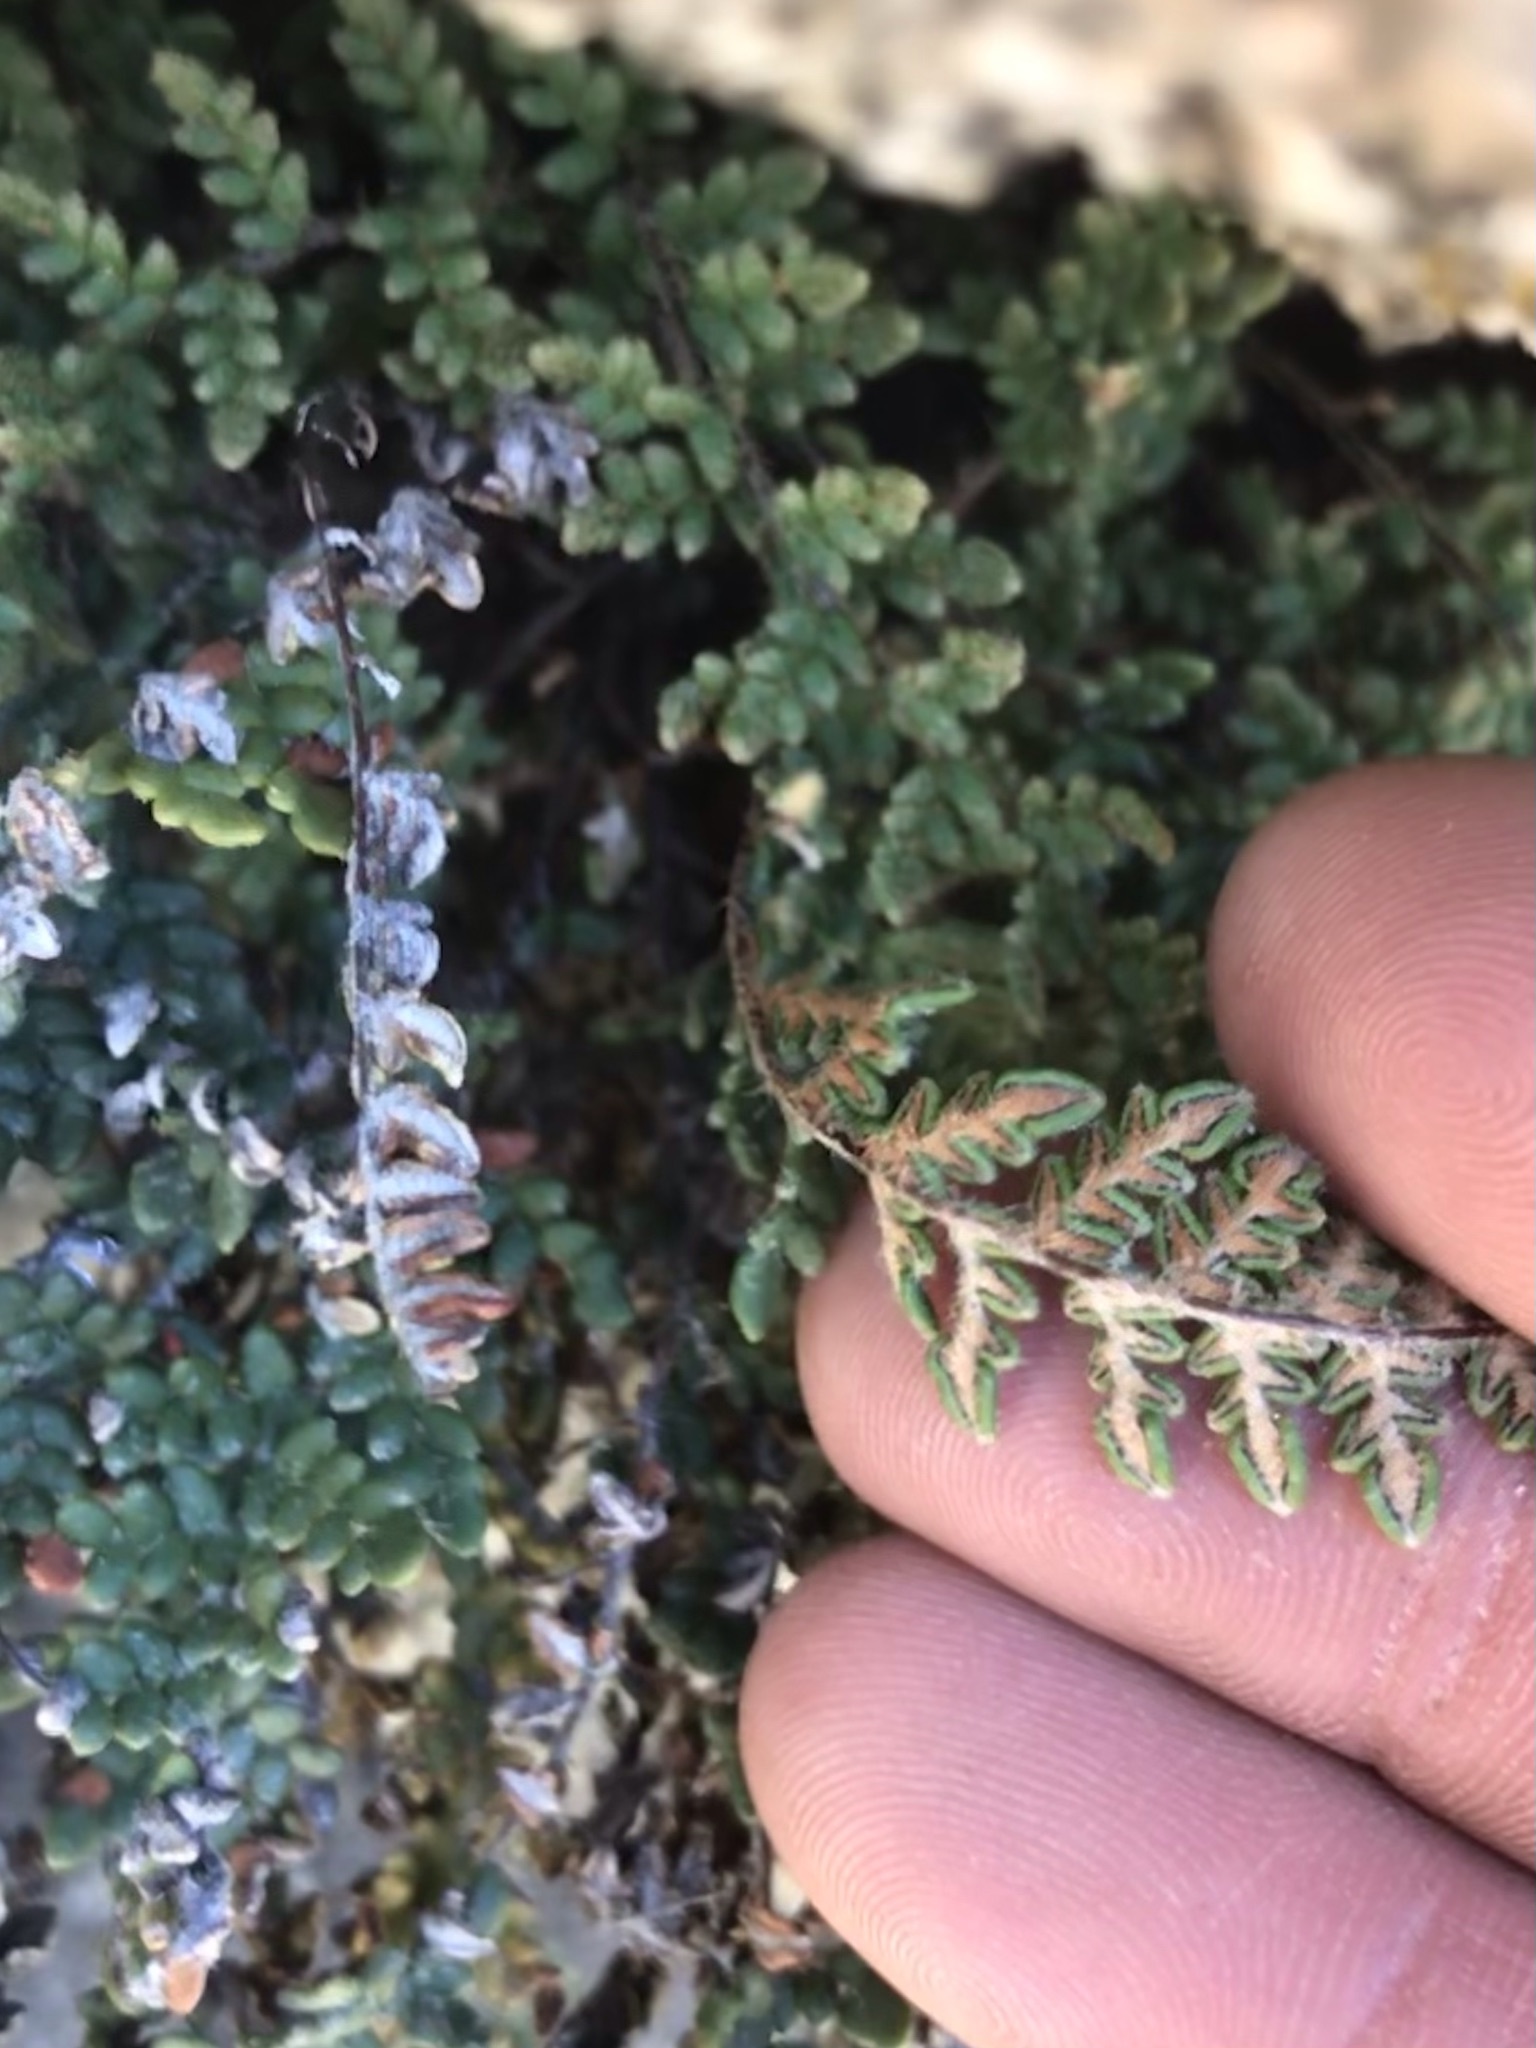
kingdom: Plantae
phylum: Tracheophyta
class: Polypodiopsida
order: Polypodiales
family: Pteridaceae
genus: Myriopteris
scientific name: Myriopteris gracillima
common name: Lace fern
